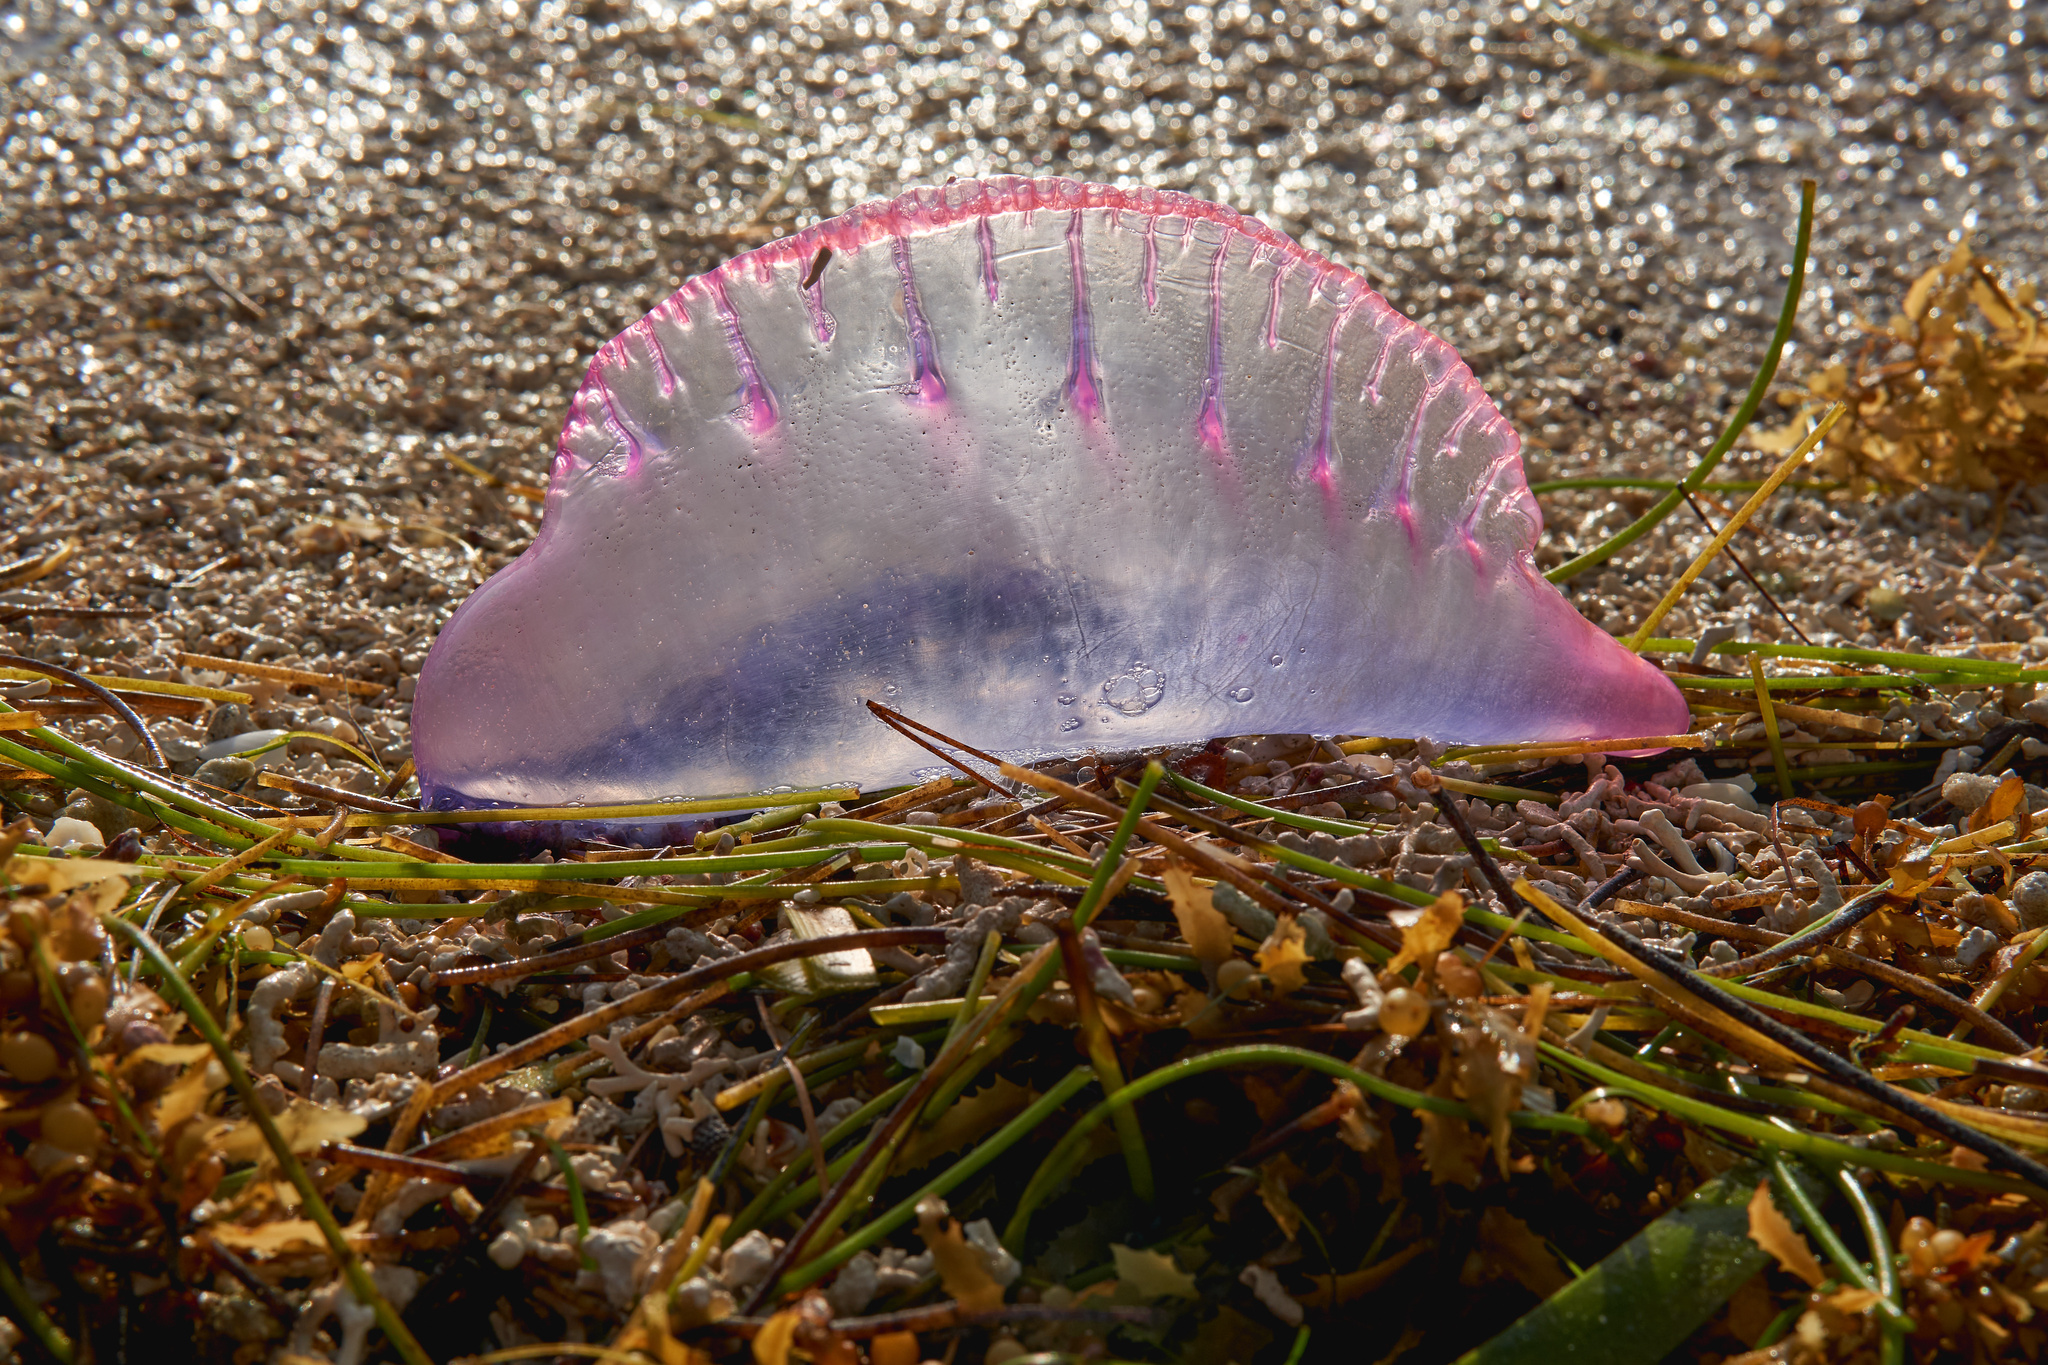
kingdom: Animalia
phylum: Cnidaria
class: Hydrozoa
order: Siphonophorae
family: Physaliidae
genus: Physalia
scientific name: Physalia physalis
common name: Portuguese man-of-war
